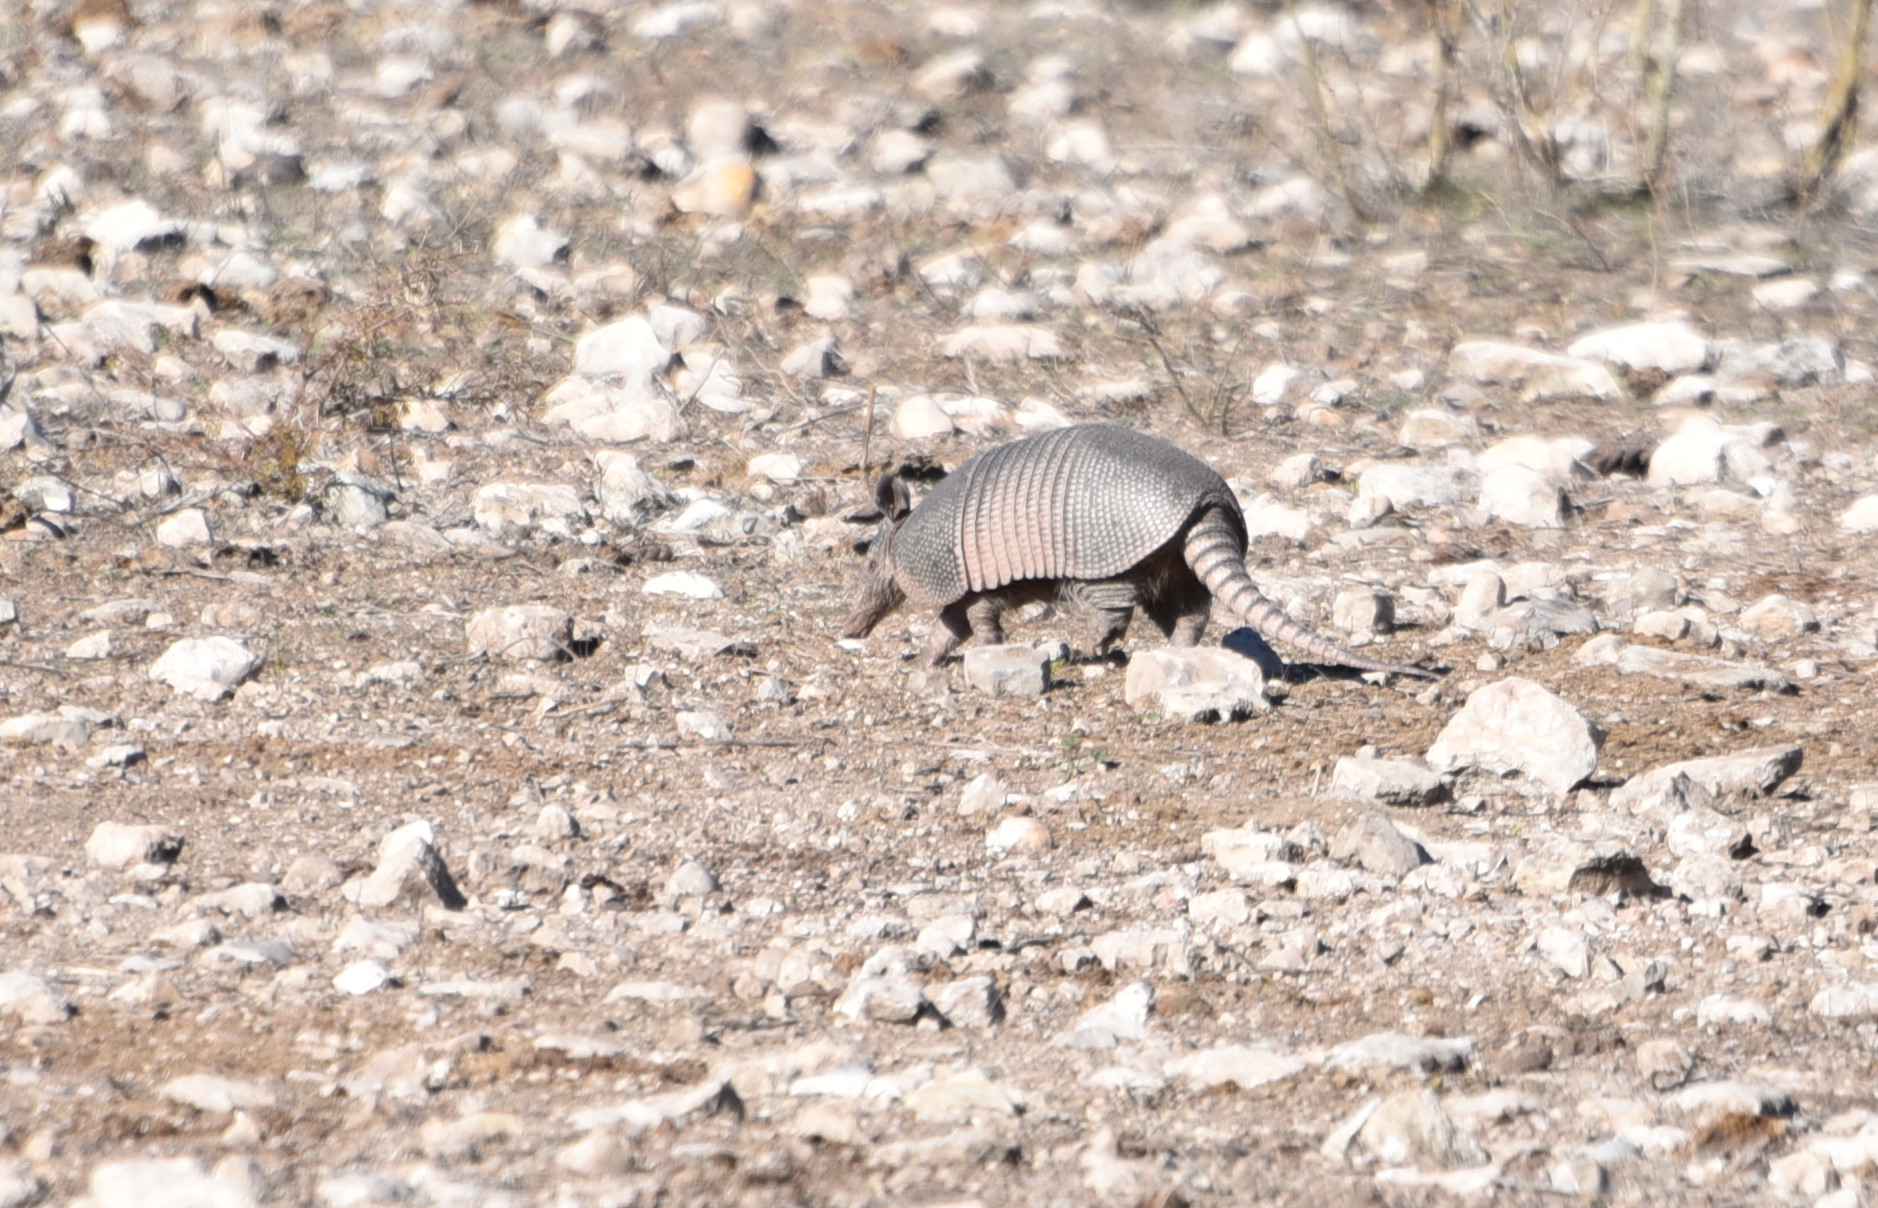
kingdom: Animalia
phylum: Chordata
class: Mammalia
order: Cingulata
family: Dasypodidae
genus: Dasypus
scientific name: Dasypus novemcinctus
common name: Nine-banded armadillo
